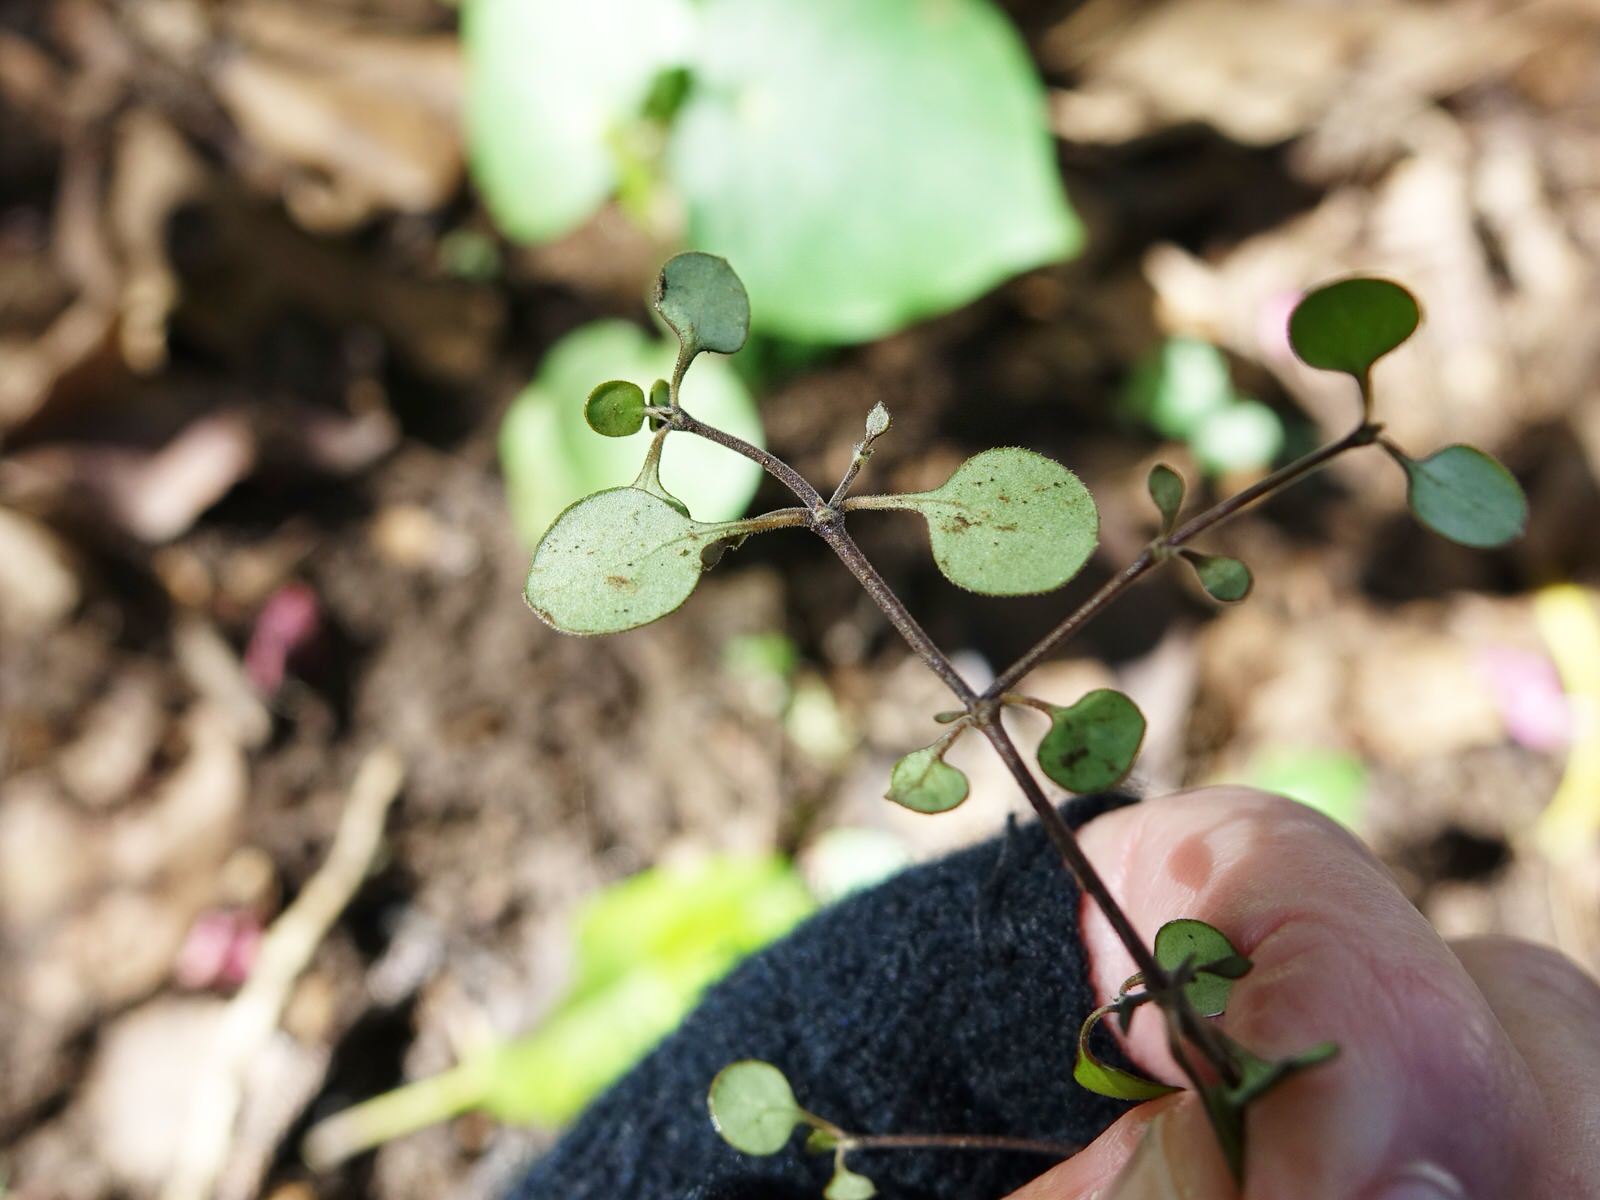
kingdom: Plantae
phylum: Tracheophyta
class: Magnoliopsida
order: Gentianales
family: Rubiaceae
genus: Coprosma
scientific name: Coprosma crassifolia
